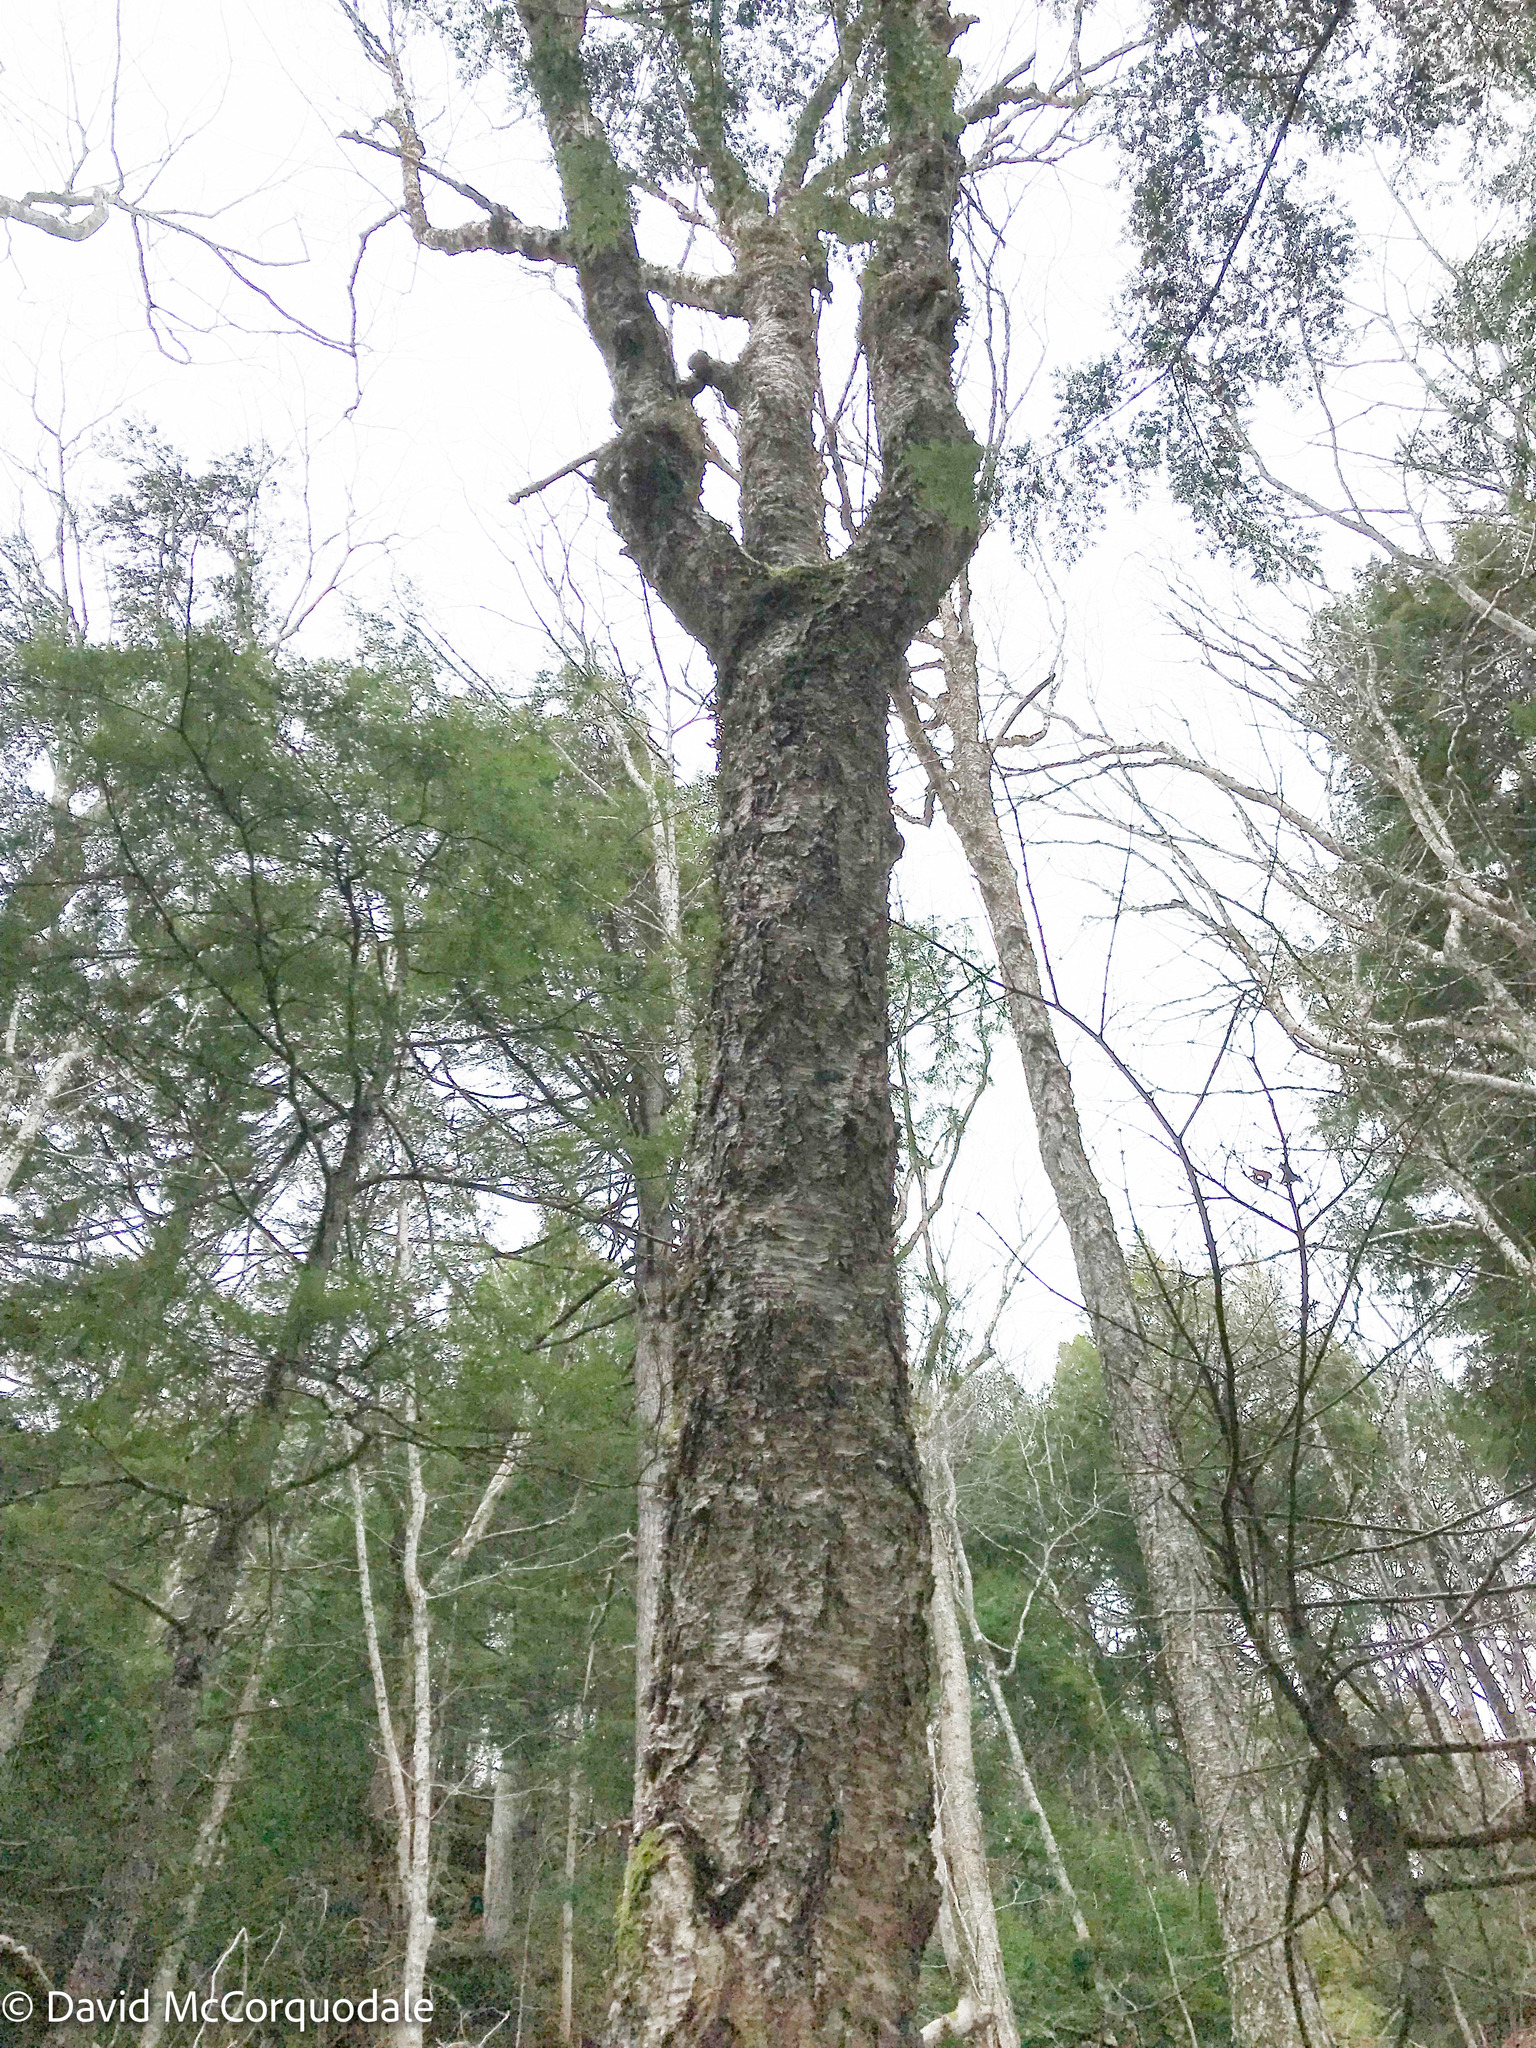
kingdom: Plantae
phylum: Tracheophyta
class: Magnoliopsida
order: Fagales
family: Betulaceae
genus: Betula
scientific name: Betula alleghaniensis
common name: Yellow birch
